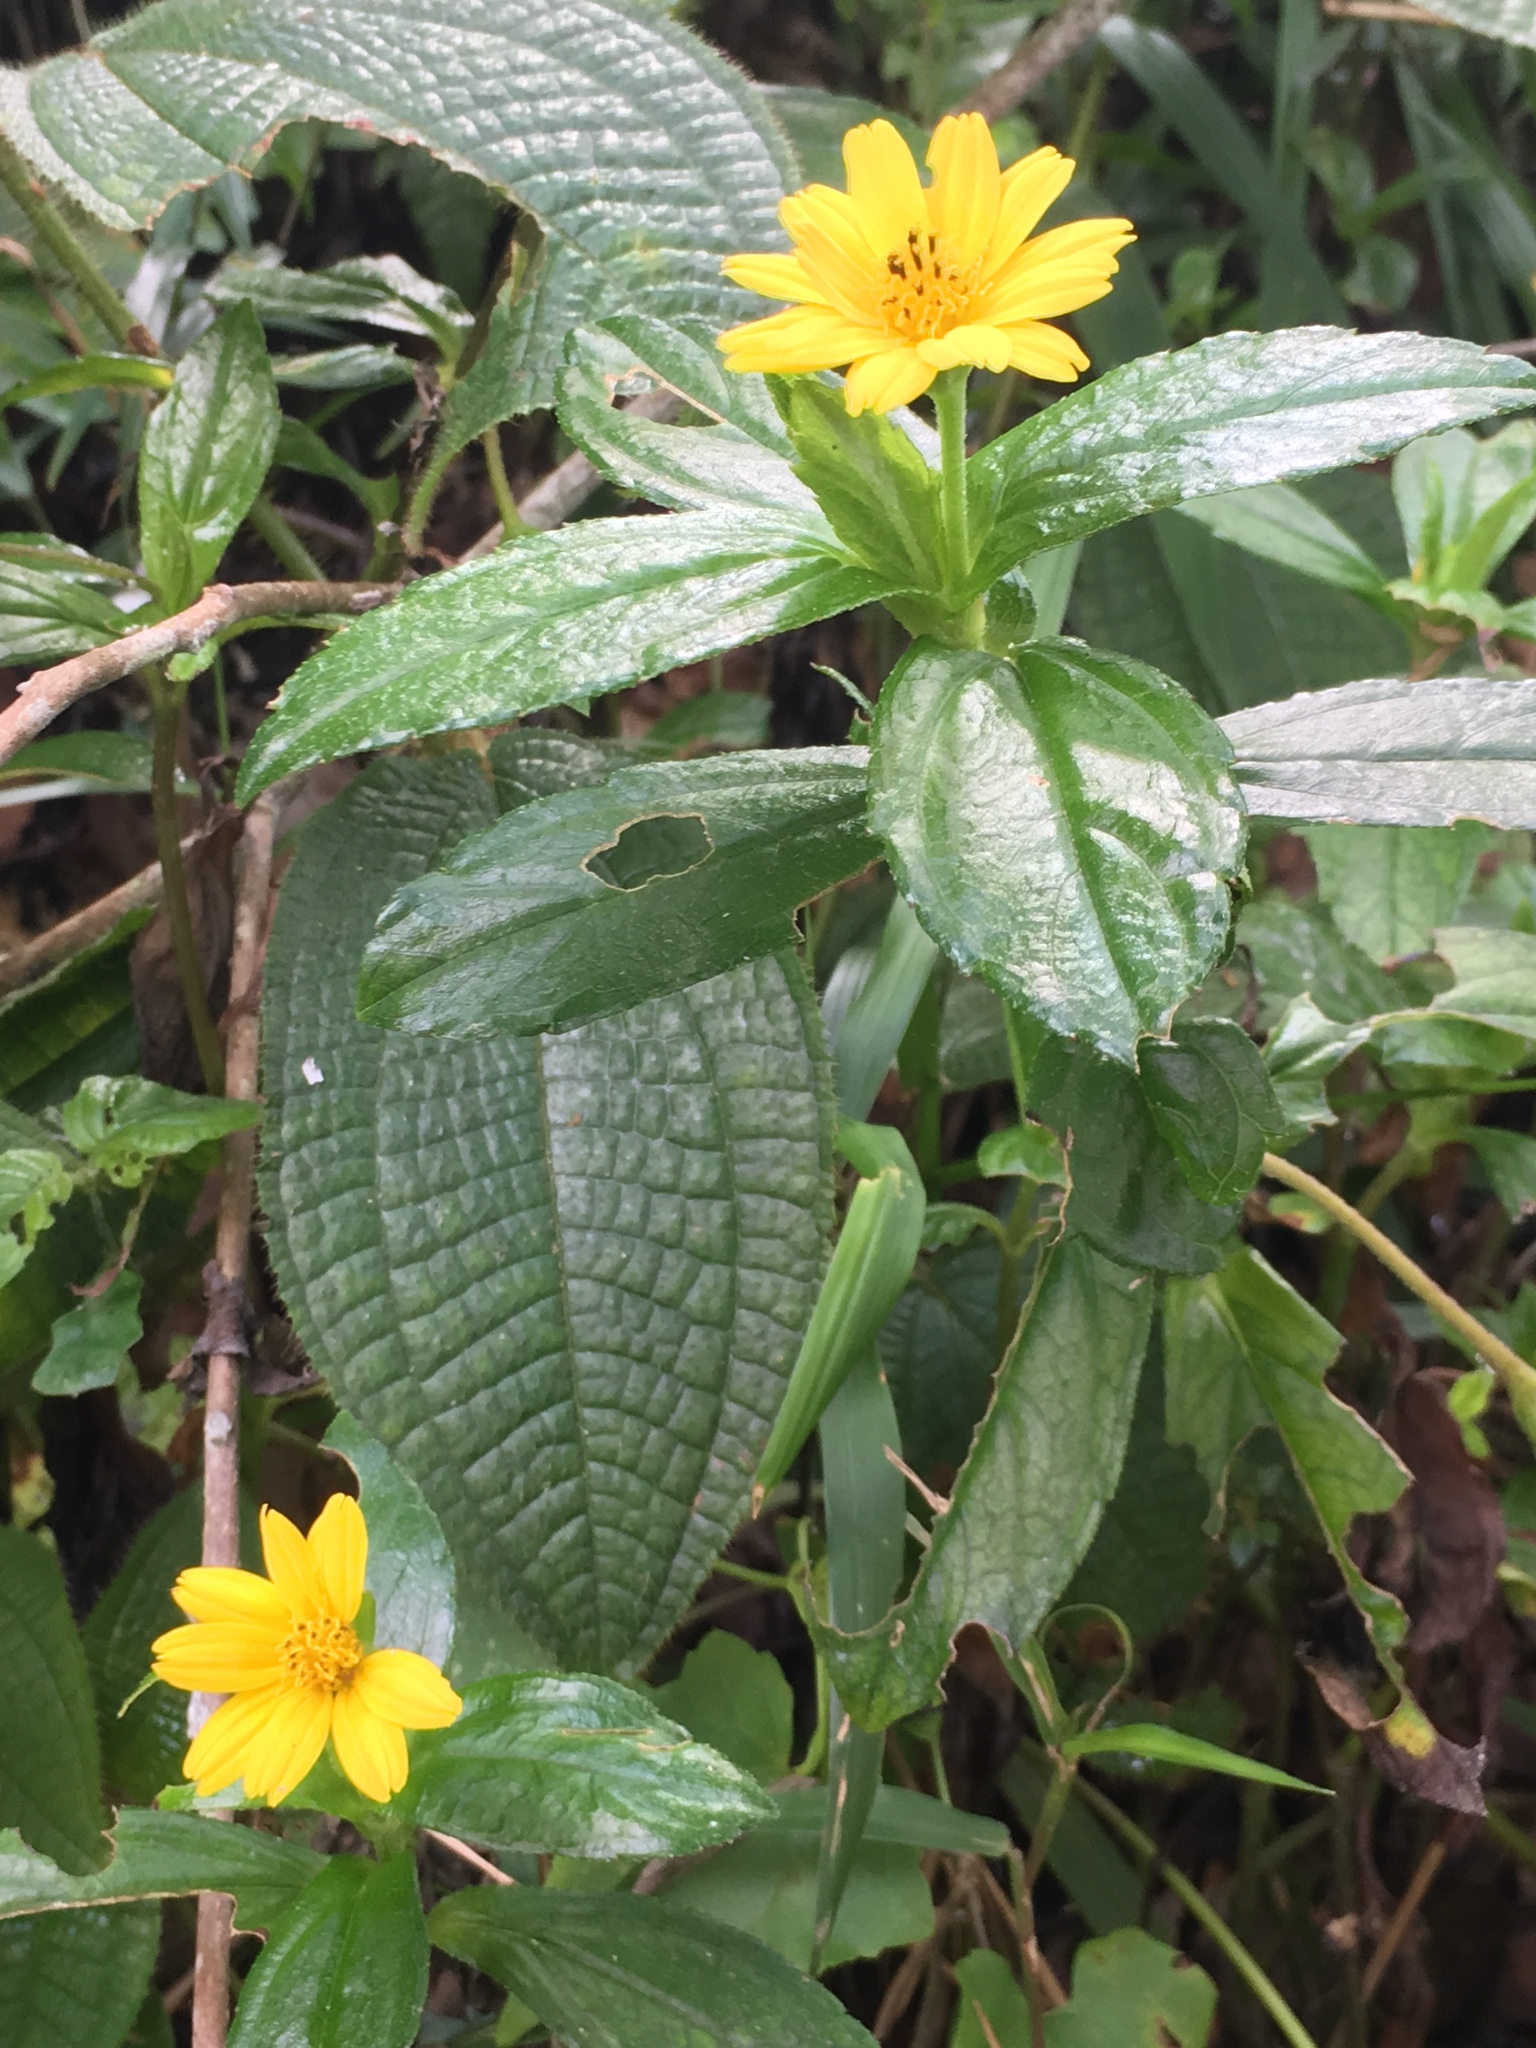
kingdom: Plantae
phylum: Tracheophyta
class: Magnoliopsida
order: Asterales
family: Asteraceae
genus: Sphagneticola
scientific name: Sphagneticola trilobata
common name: Bay biscayne creeping-oxeye
